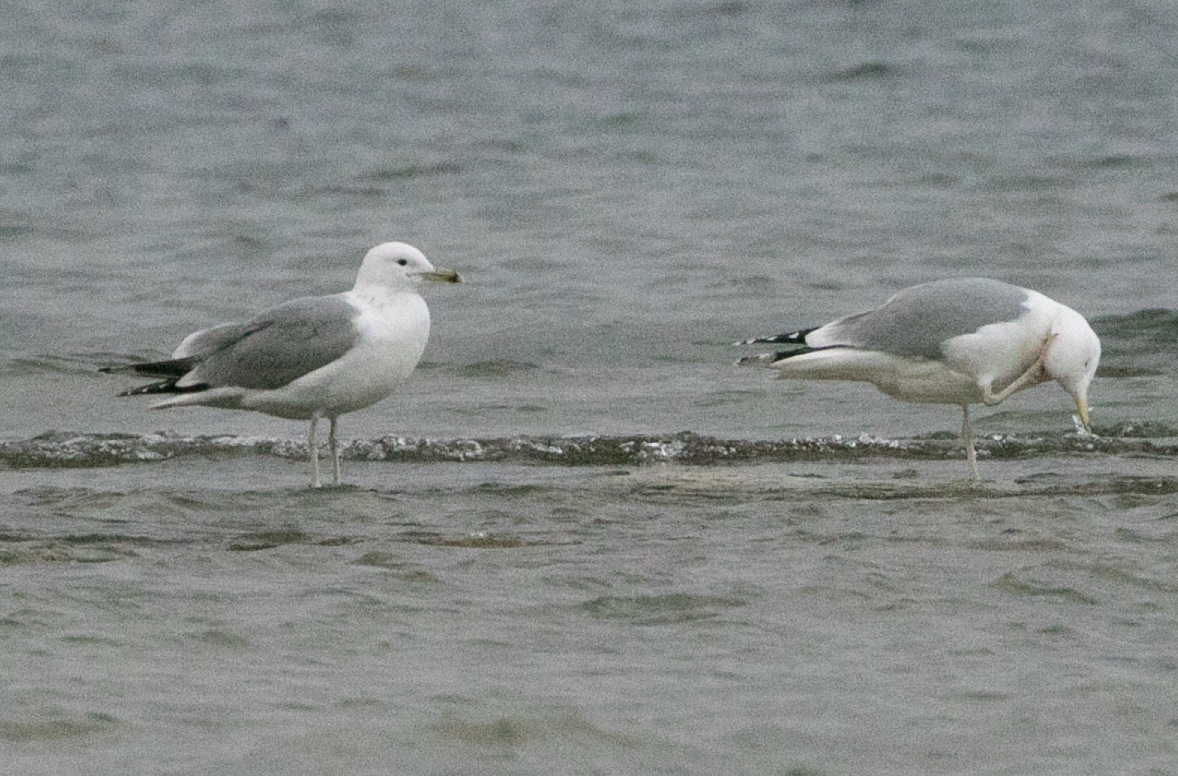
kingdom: Animalia
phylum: Chordata
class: Aves
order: Charadriiformes
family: Laridae
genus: Larus
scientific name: Larus cachinnans
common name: Caspian gull
